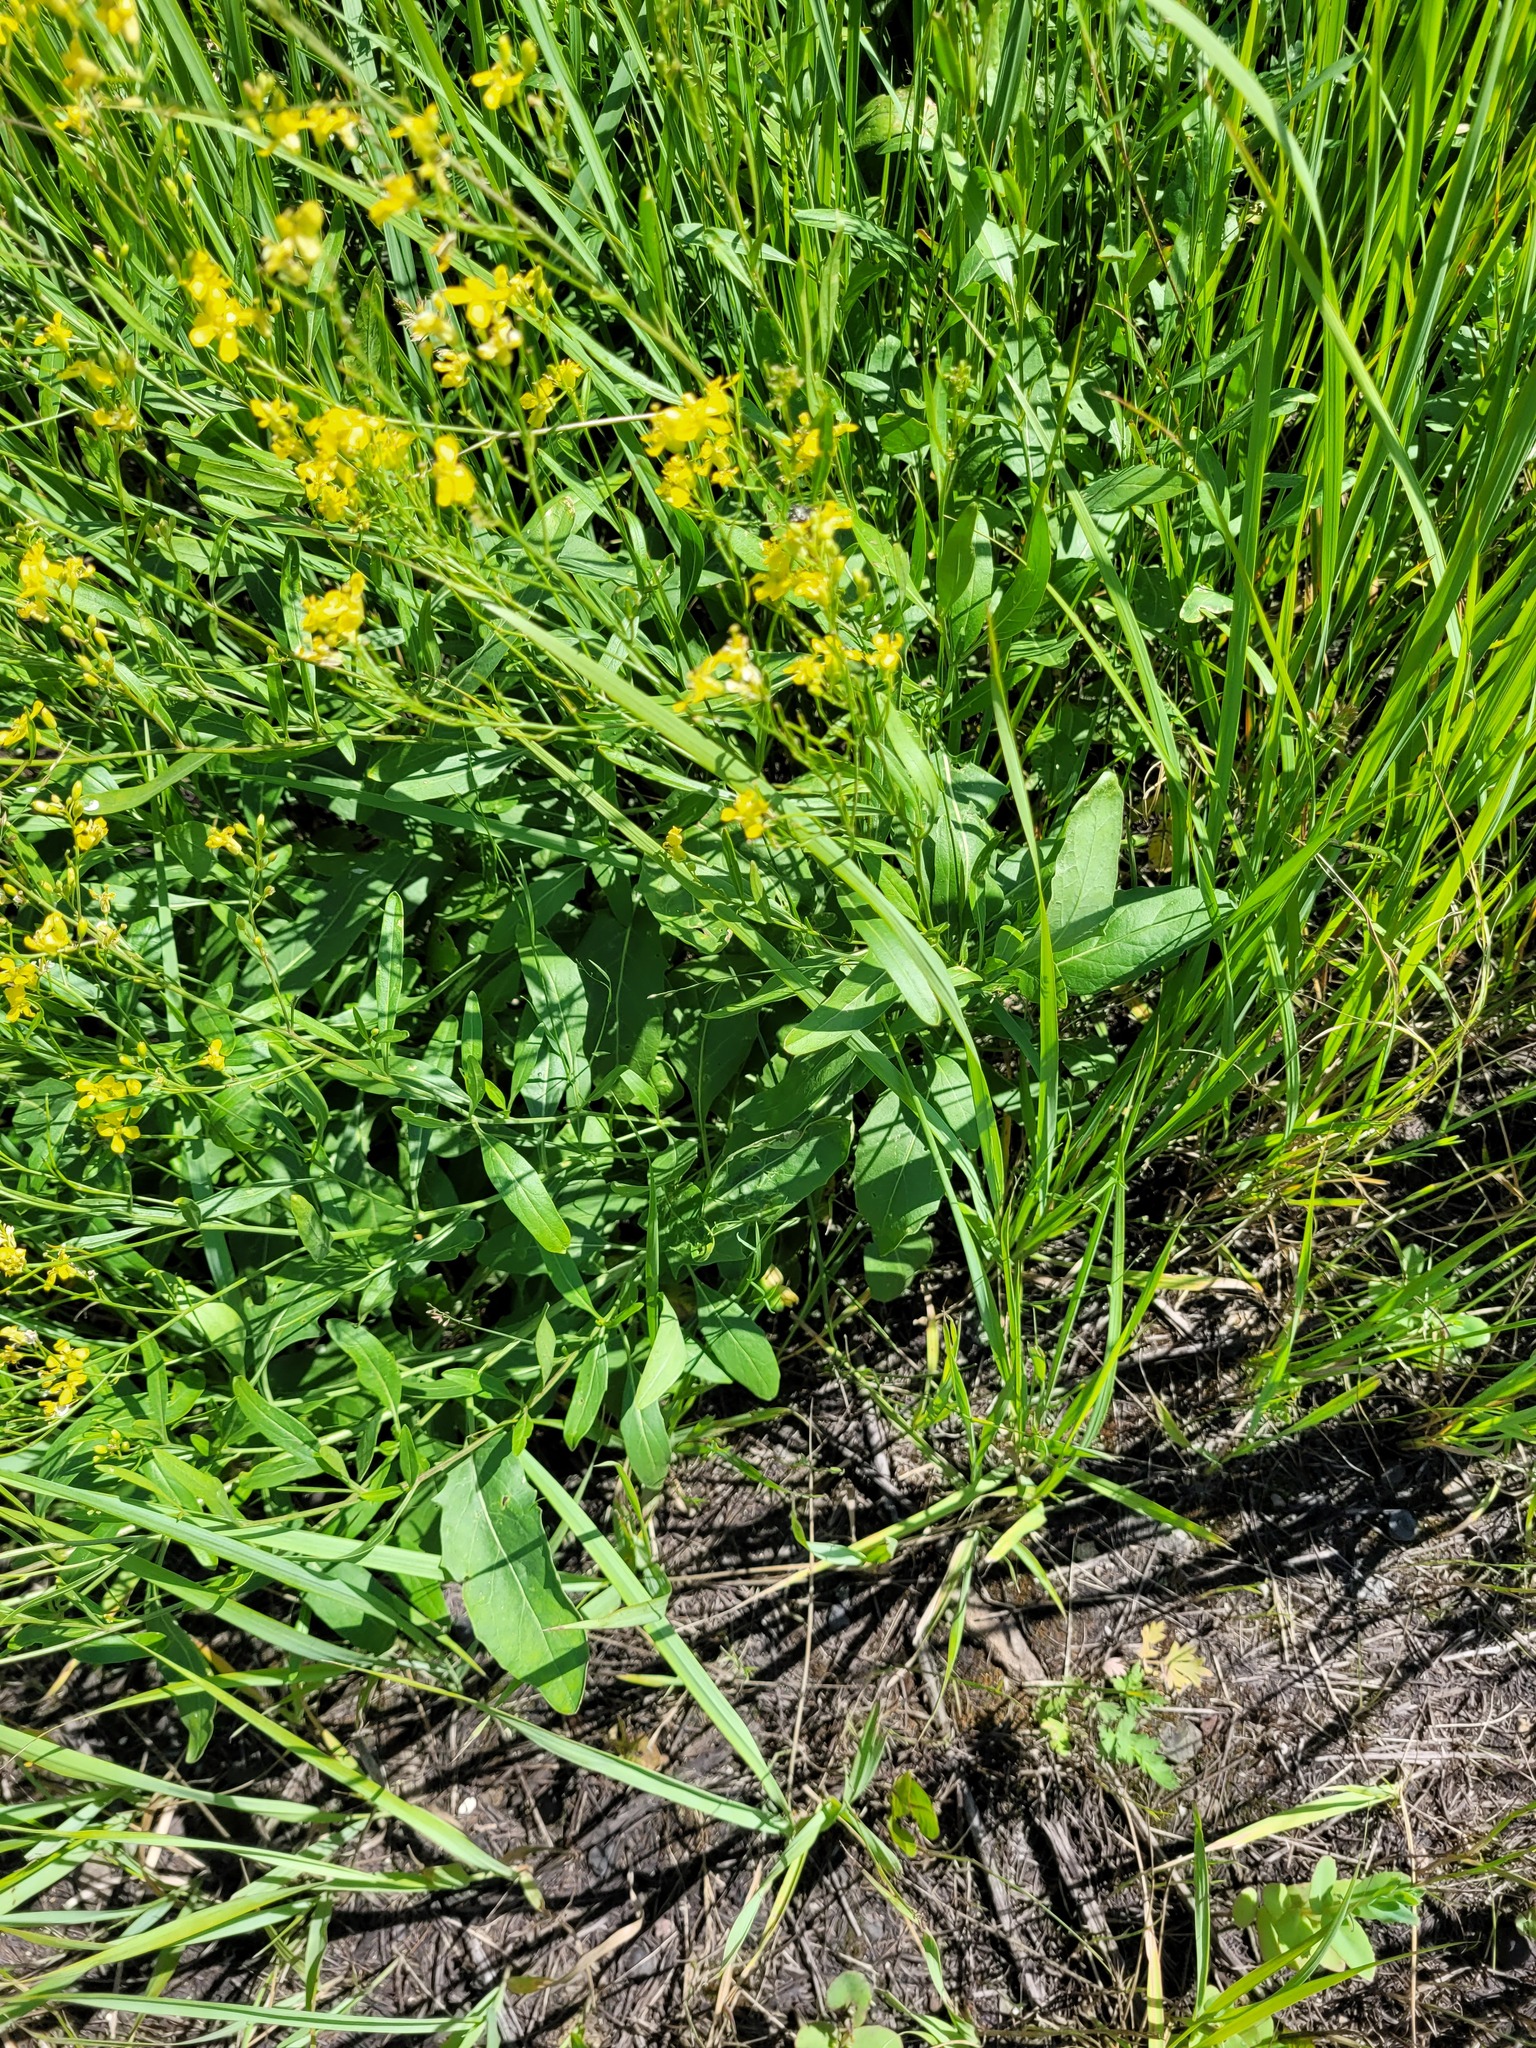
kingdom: Plantae
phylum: Tracheophyta
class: Magnoliopsida
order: Brassicales
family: Brassicaceae
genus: Sisymbrium
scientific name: Sisymbrium volgense
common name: Russian mustard
